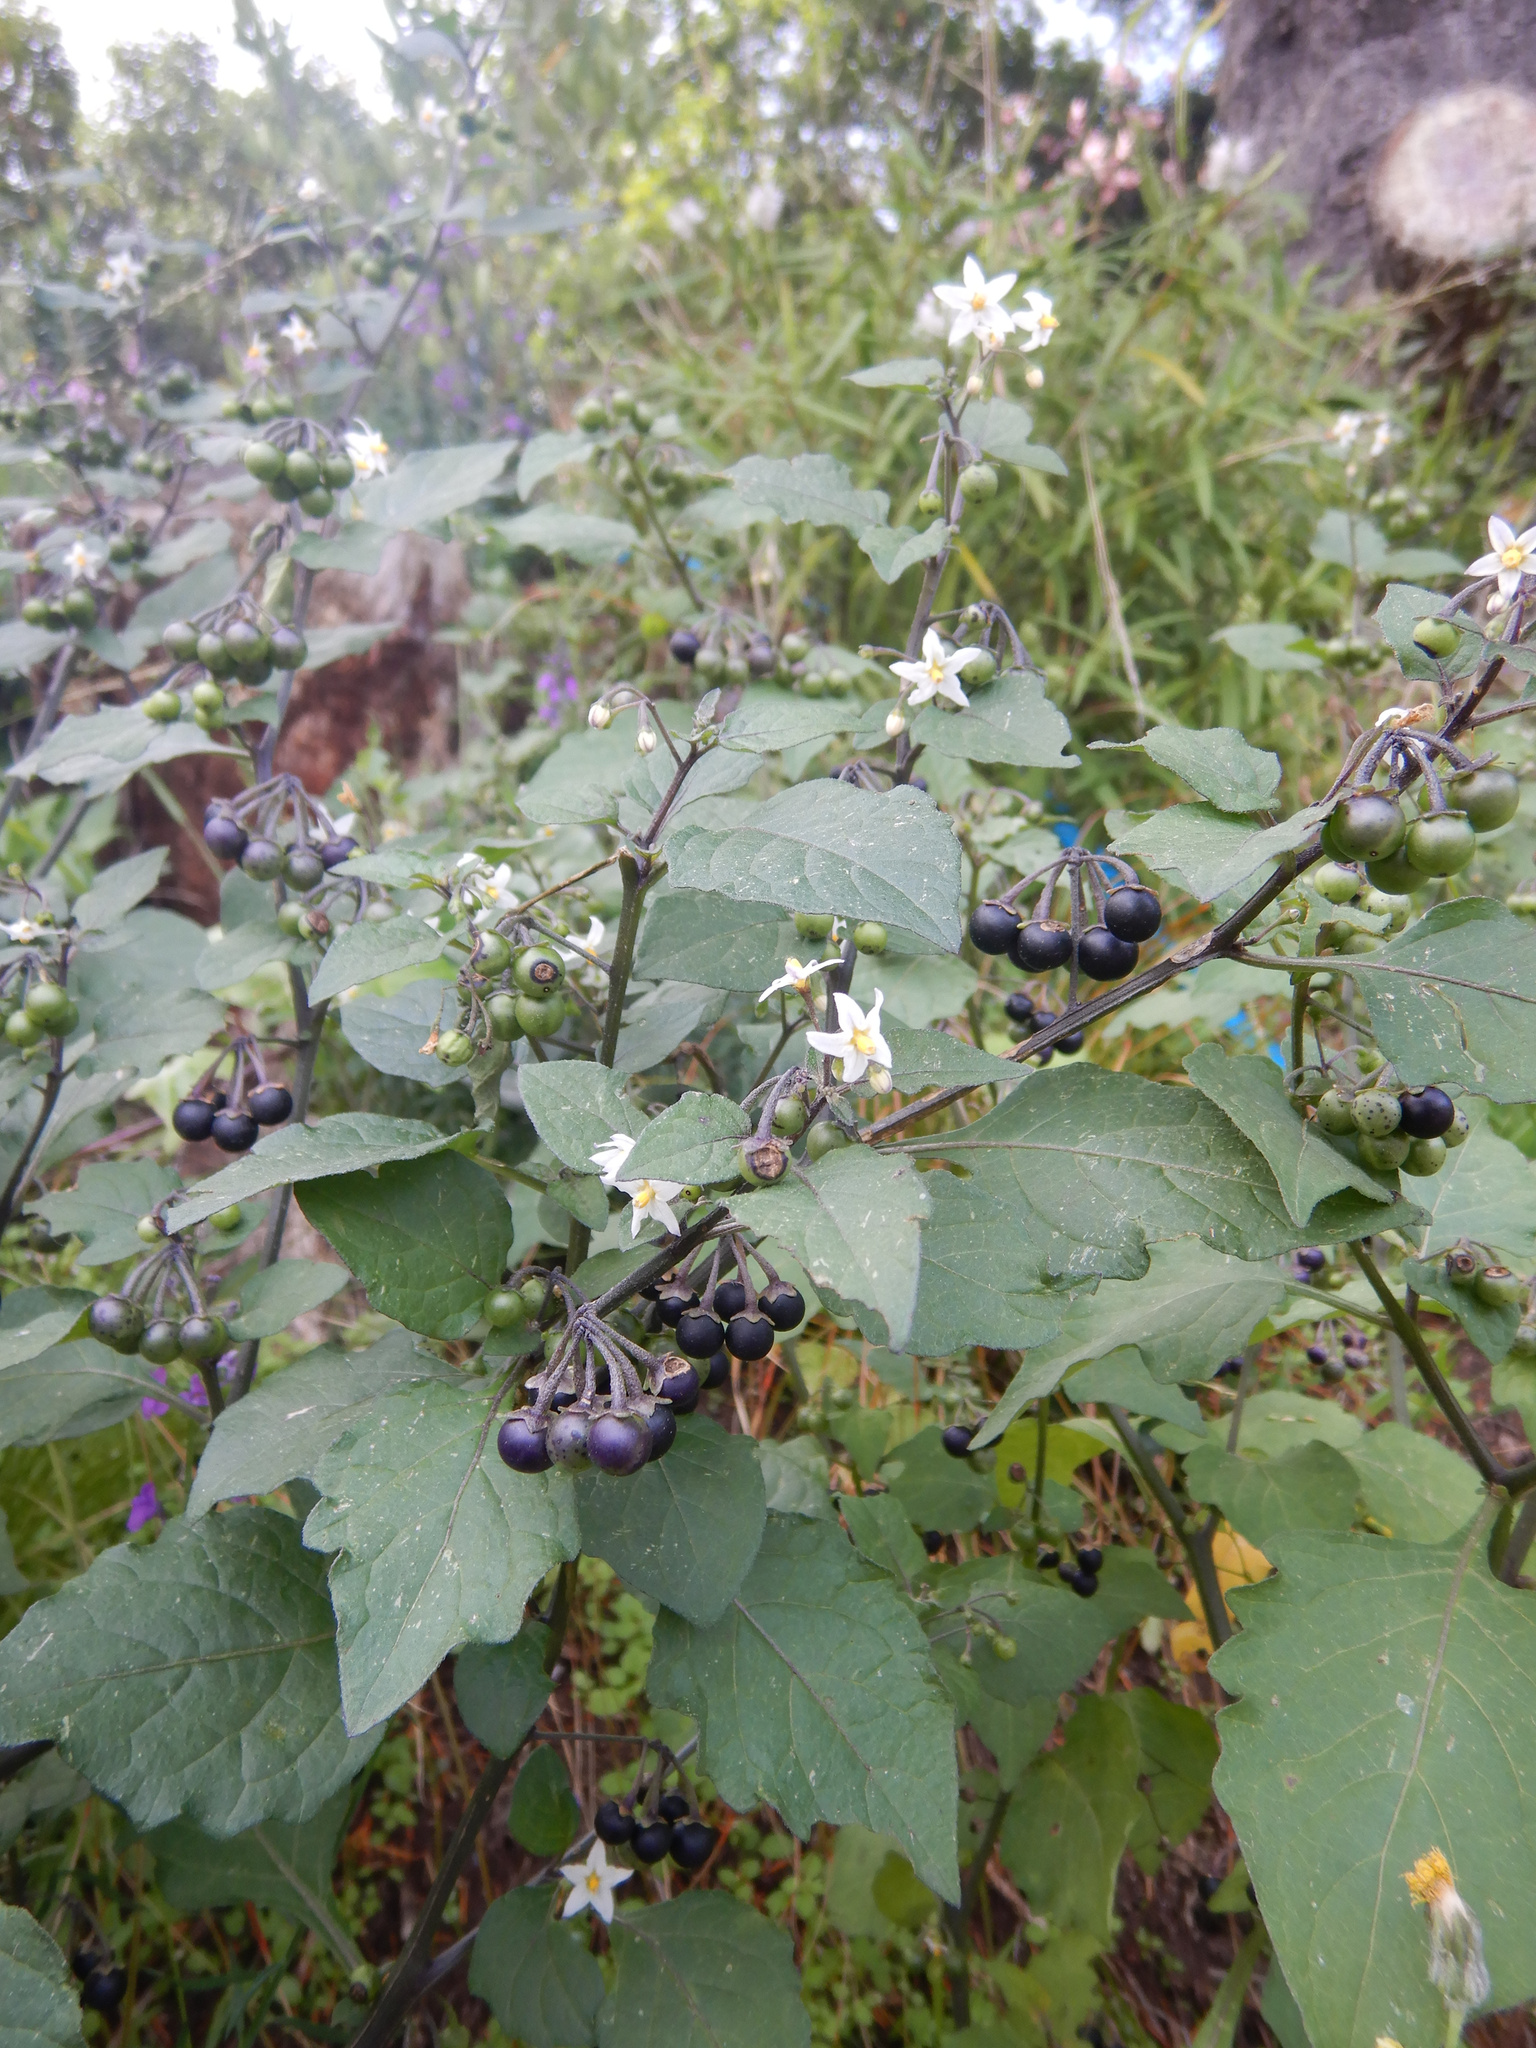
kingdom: Plantae
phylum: Tracheophyta
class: Magnoliopsida
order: Solanales
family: Solanaceae
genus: Solanum
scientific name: Solanum nigrum
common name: Black nightshade
